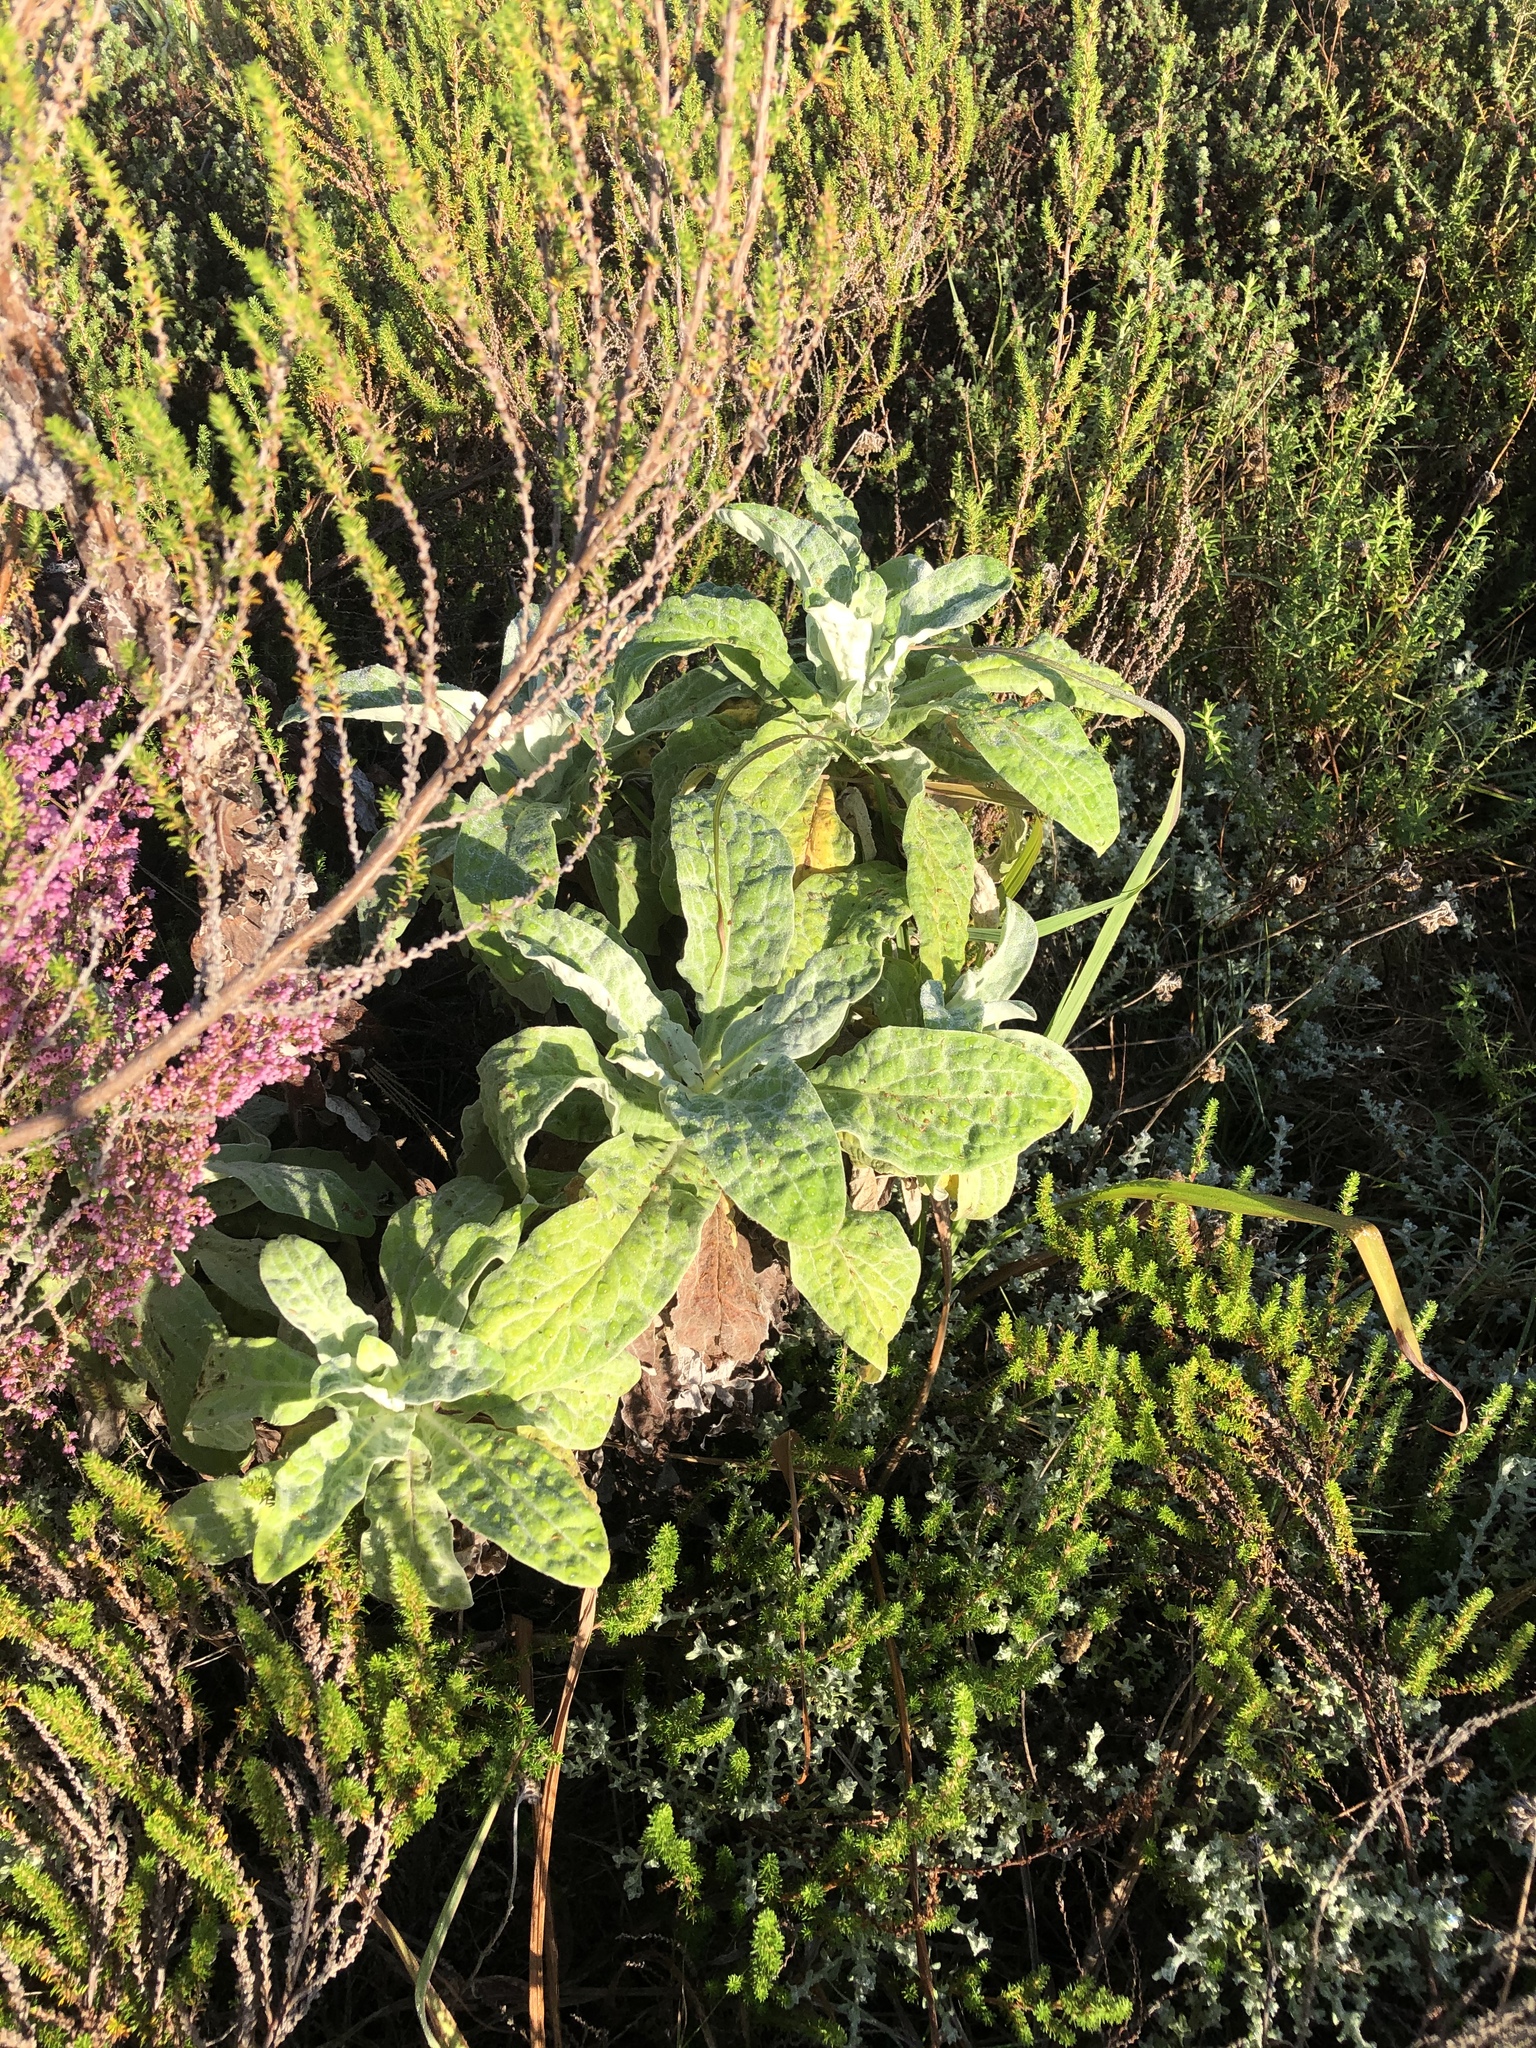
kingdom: Plantae
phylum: Tracheophyta
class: Magnoliopsida
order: Asterales
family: Asteraceae
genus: Helichrysum
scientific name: Helichrysum foetidum
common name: Stinking everlasting
